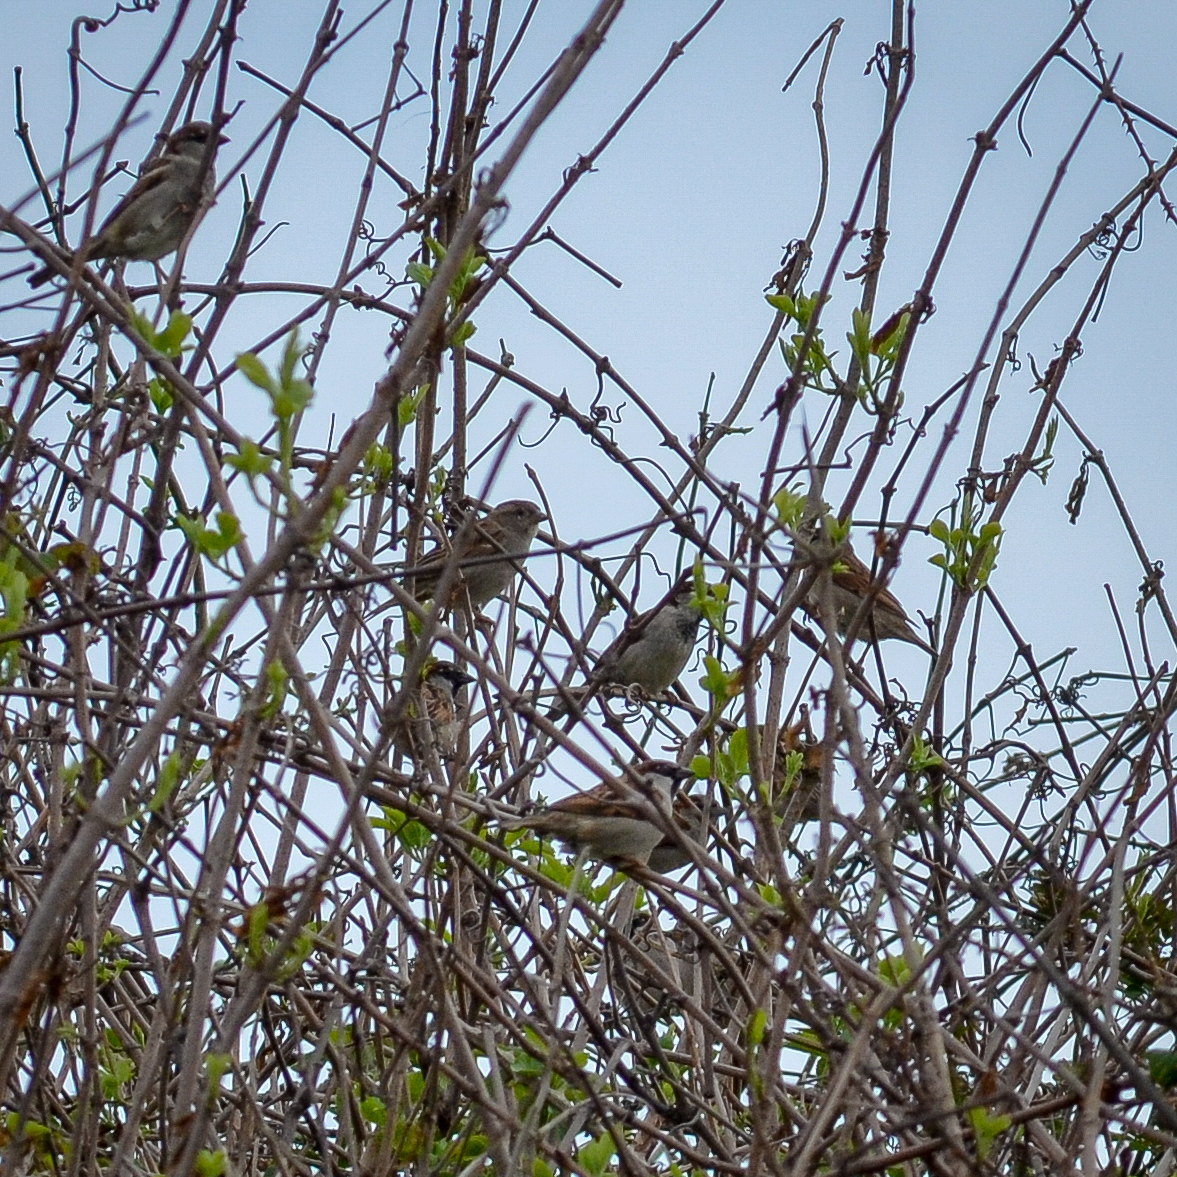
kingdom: Animalia
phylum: Chordata
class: Aves
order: Passeriformes
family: Passeridae
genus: Passer
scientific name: Passer domesticus
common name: House sparrow
